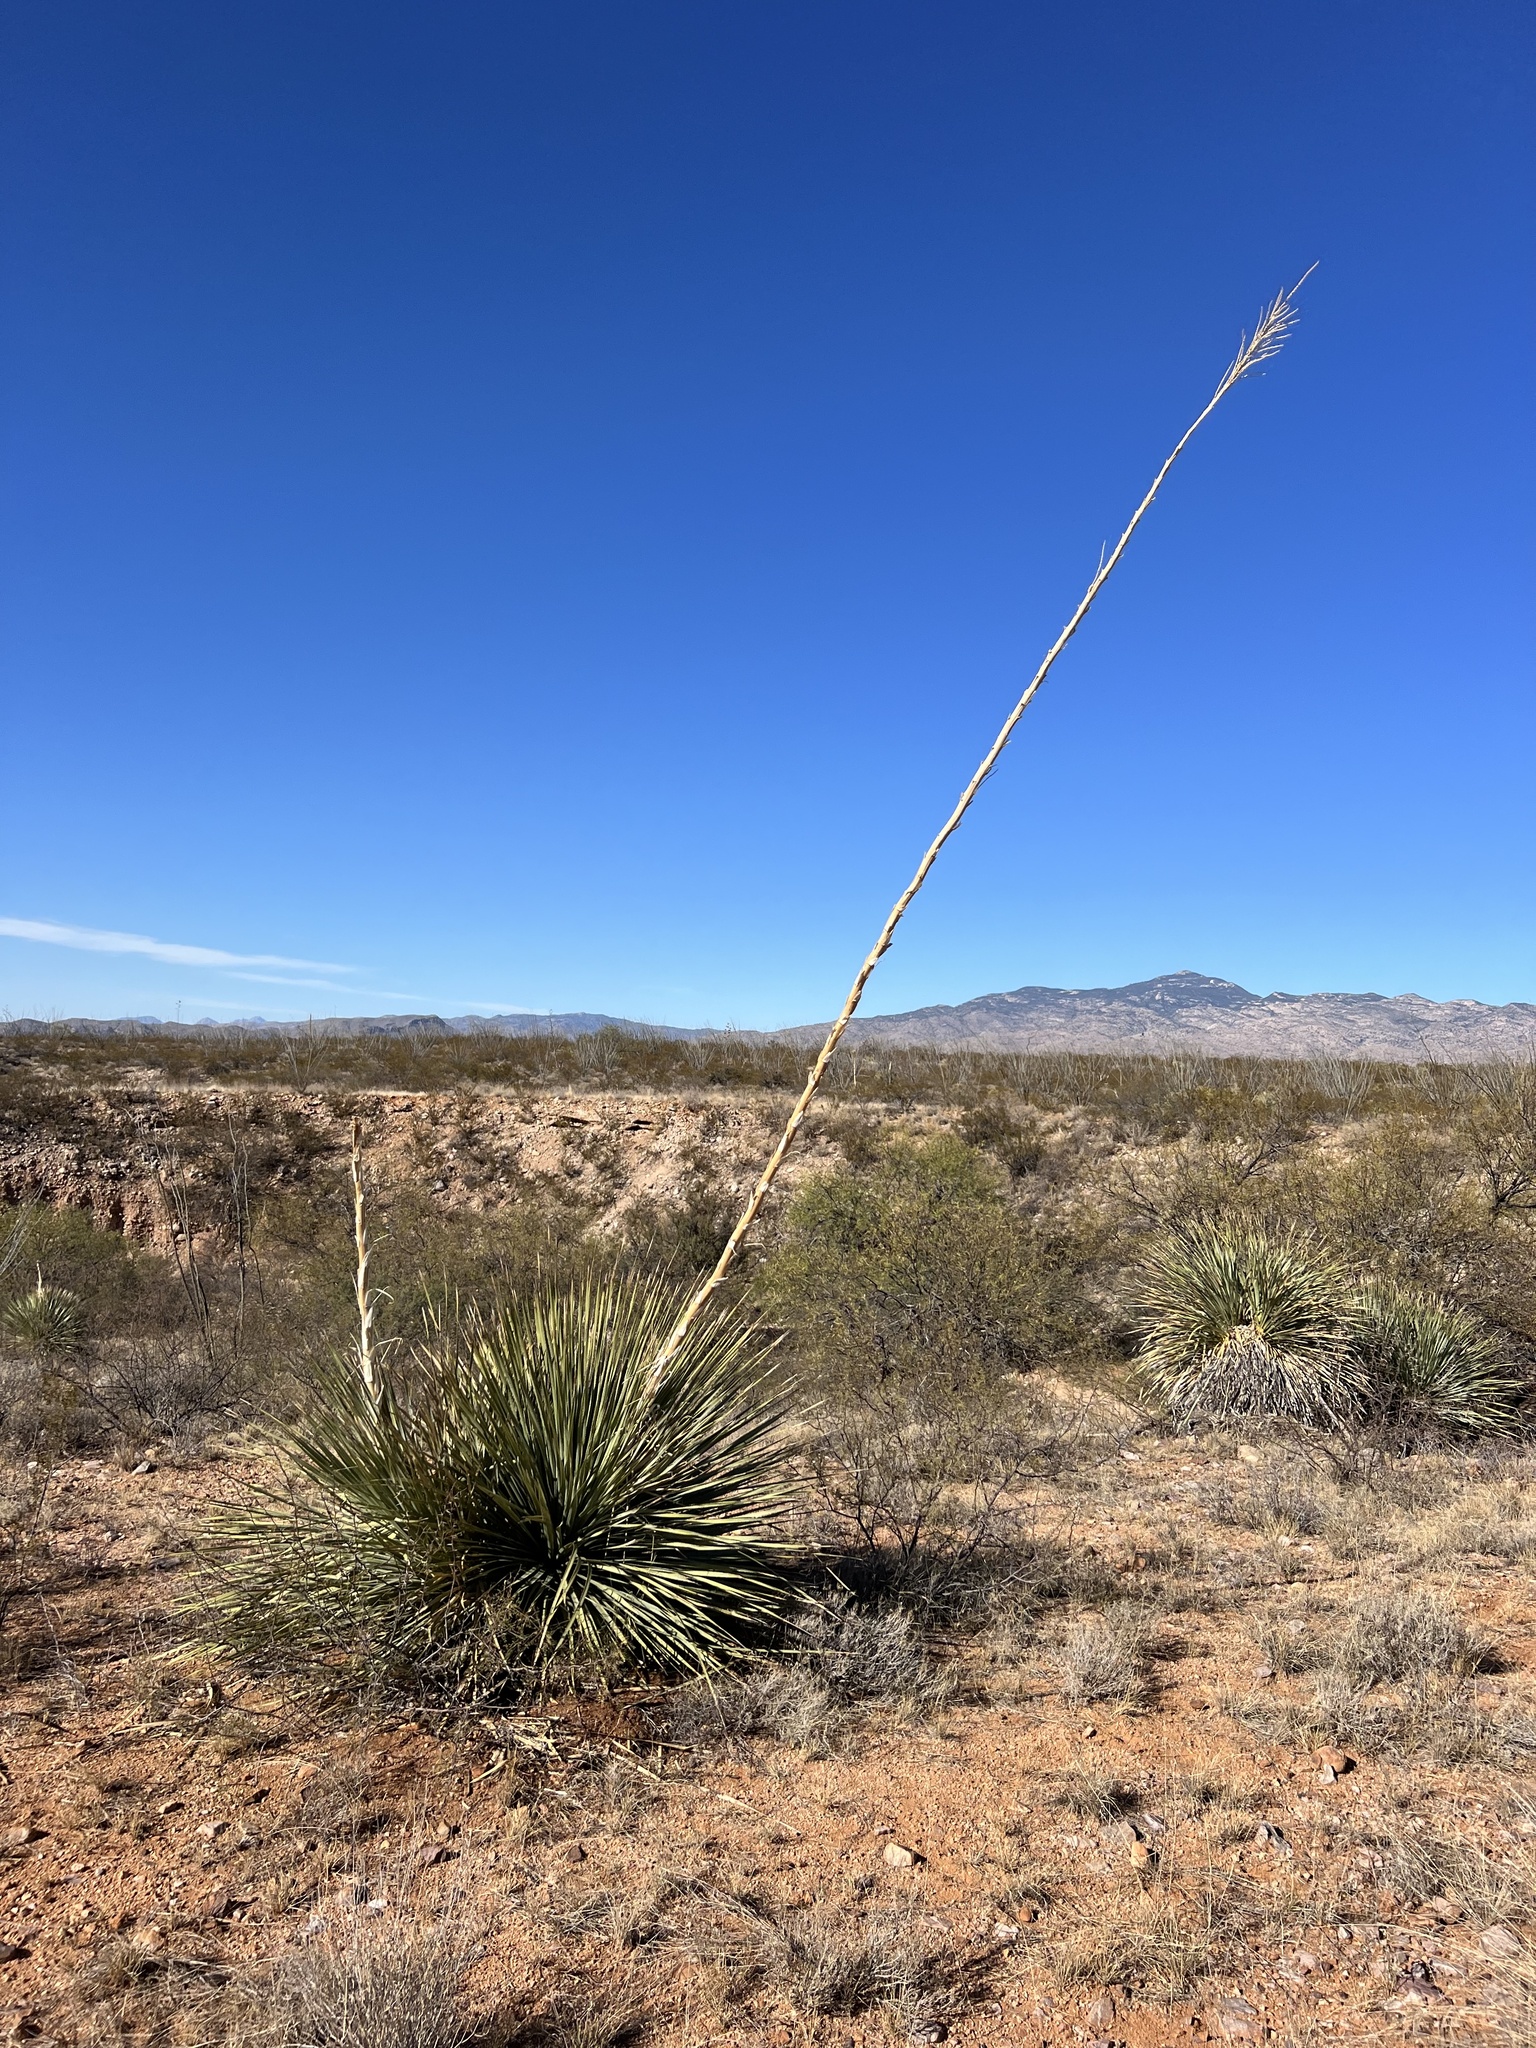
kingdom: Plantae
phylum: Tracheophyta
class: Liliopsida
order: Asparagales
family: Asparagaceae
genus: Dasylirion
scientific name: Dasylirion wheeleri
